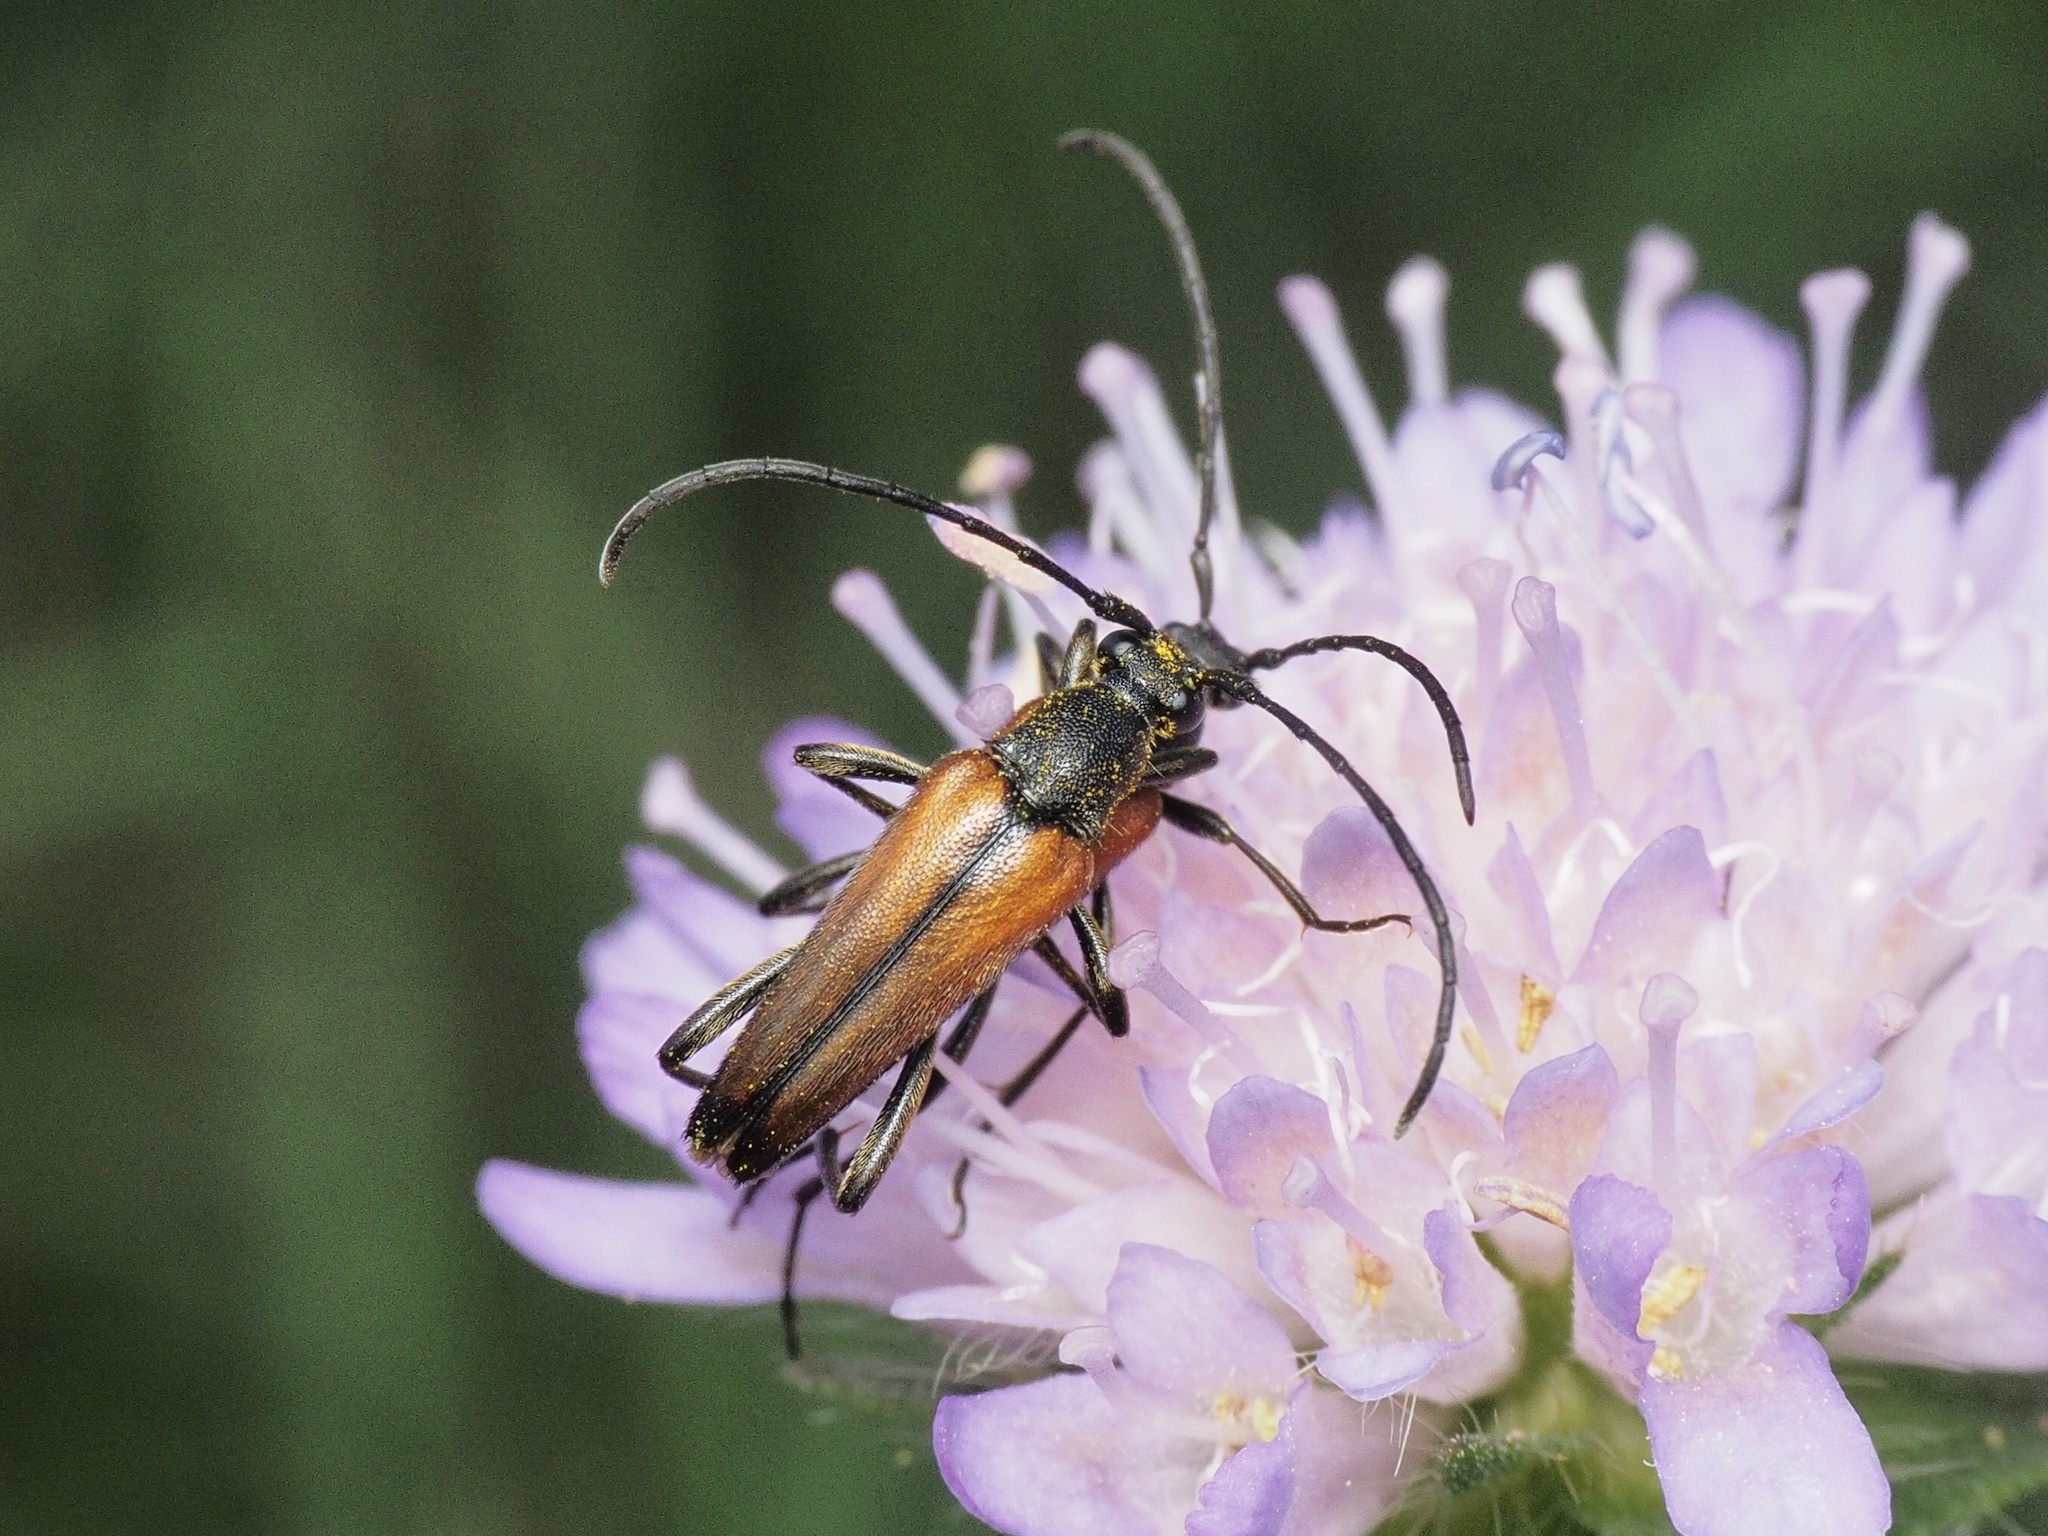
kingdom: Animalia
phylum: Arthropoda
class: Insecta
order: Coleoptera
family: Cerambycidae
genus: Stenurella
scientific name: Stenurella melanura
